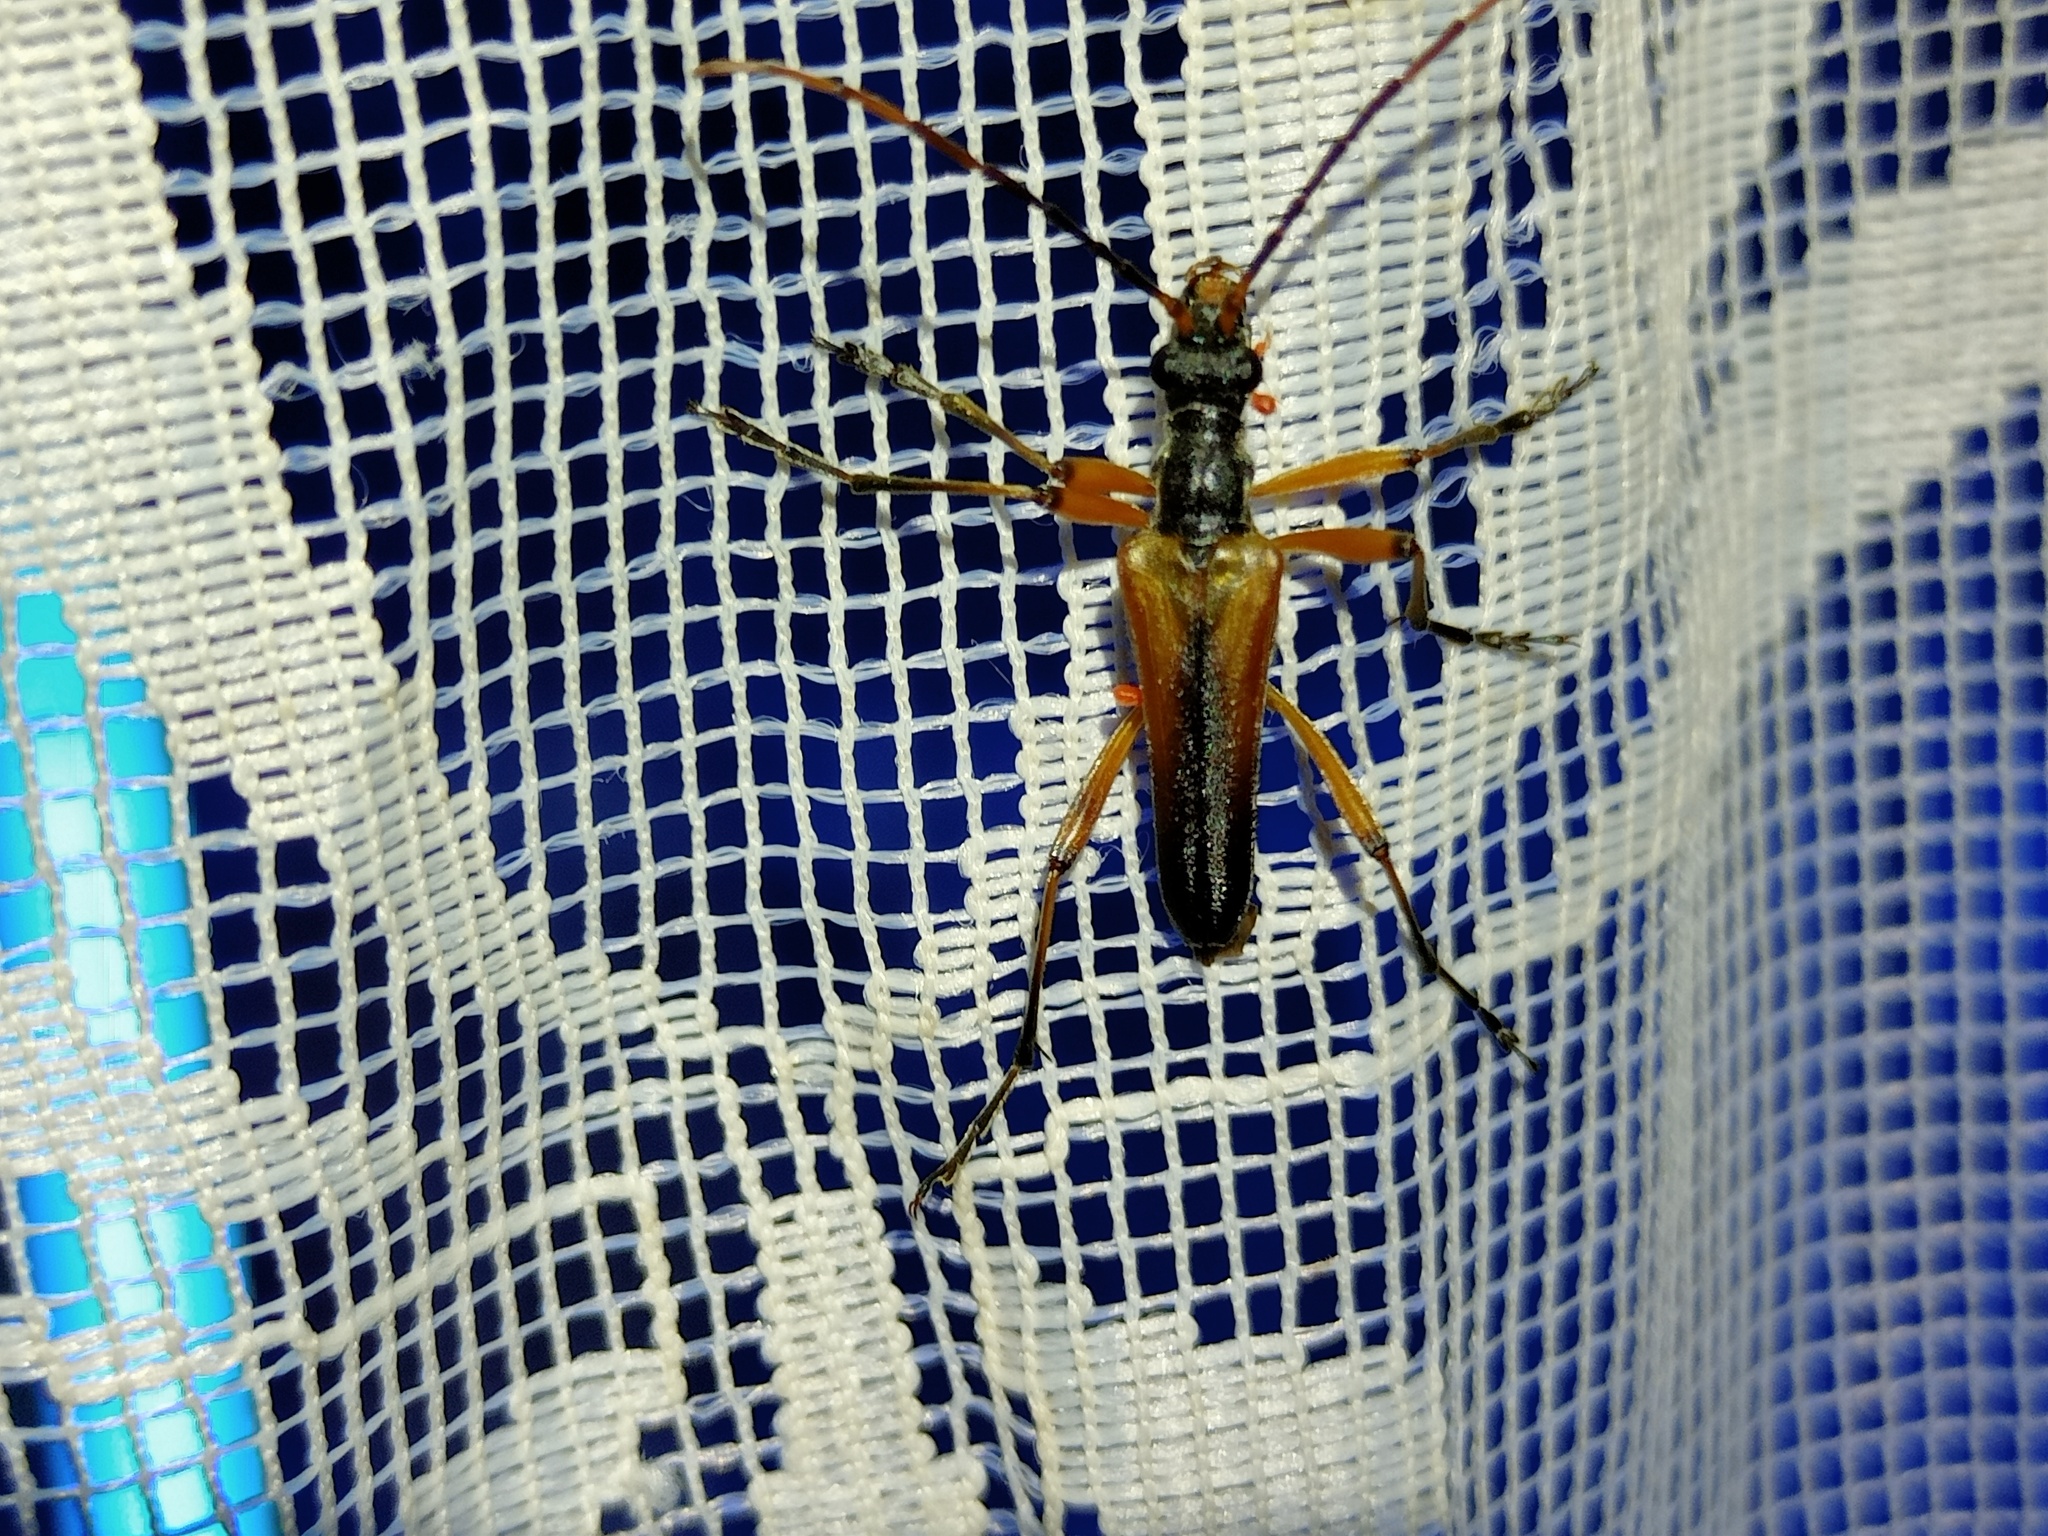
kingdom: Animalia
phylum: Arthropoda
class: Insecta
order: Coleoptera
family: Cerambycidae
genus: Stenocorus
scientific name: Stenocorus meridianus
